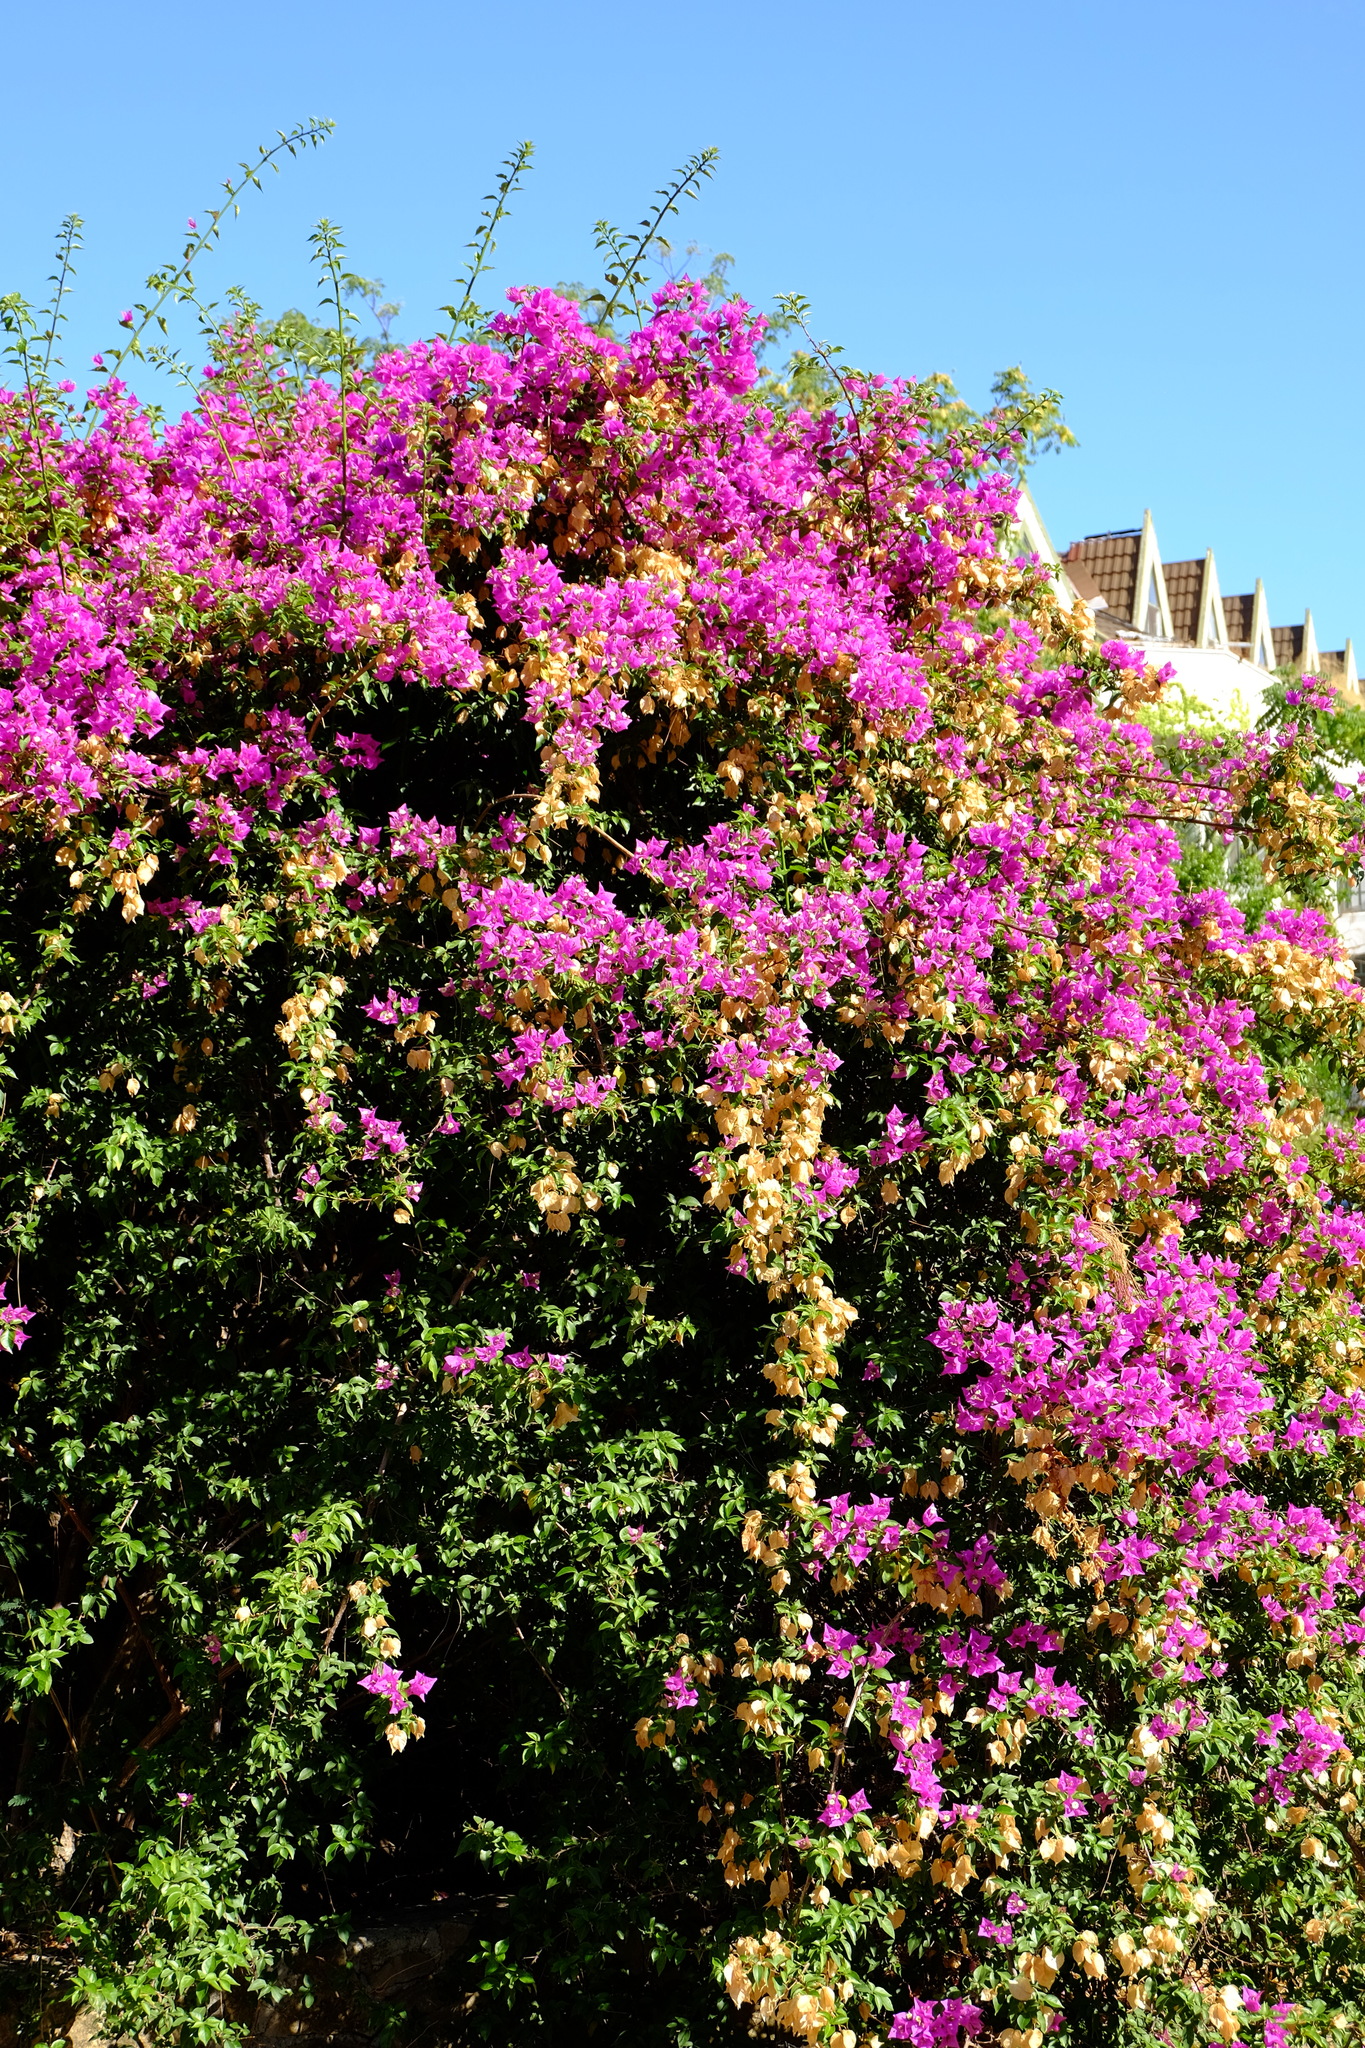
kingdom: Plantae
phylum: Tracheophyta
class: Magnoliopsida
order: Caryophyllales
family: Nyctaginaceae
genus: Bougainvillea
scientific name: Bougainvillea glabra
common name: Paperflower
